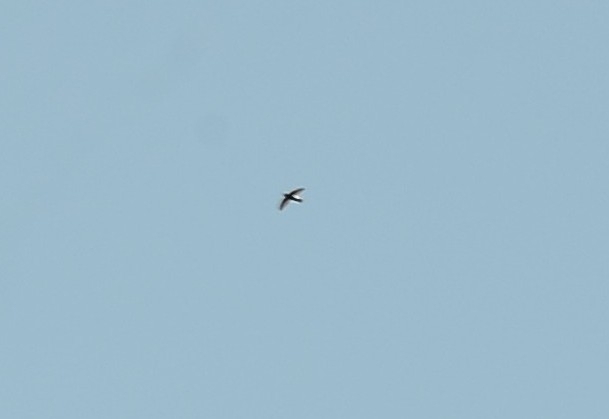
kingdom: Animalia
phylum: Chordata
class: Aves
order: Apodiformes
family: Apodidae
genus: Apus
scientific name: Apus affinis
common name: Little swift
